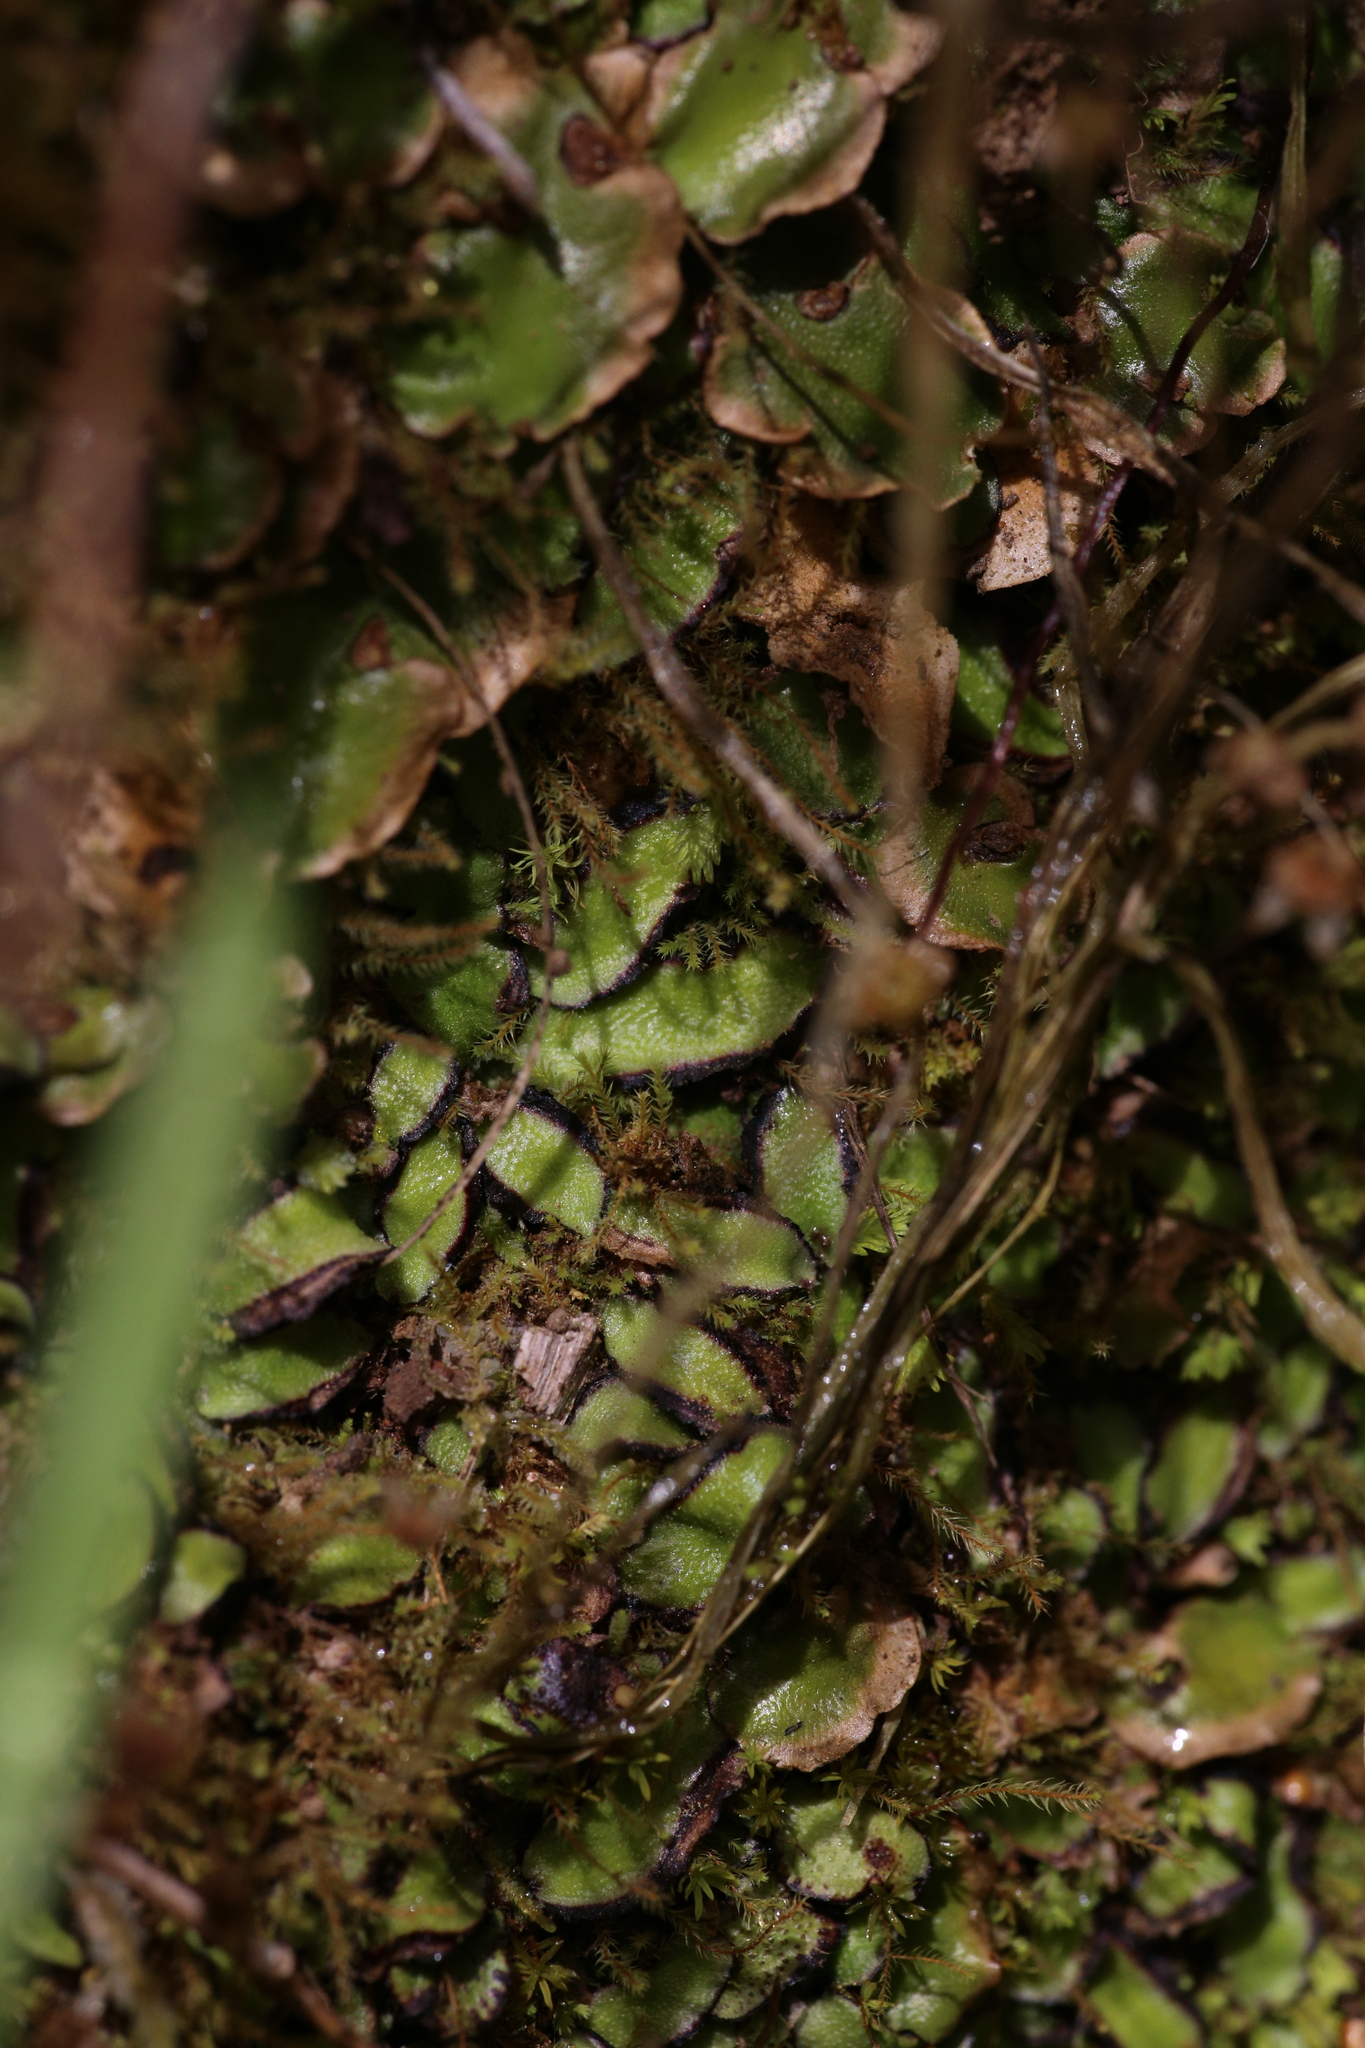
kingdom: Plantae
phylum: Marchantiophyta
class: Marchantiopsida
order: Marchantiales
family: Aytoniaceae
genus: Asterella
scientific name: Asterella drummondii
